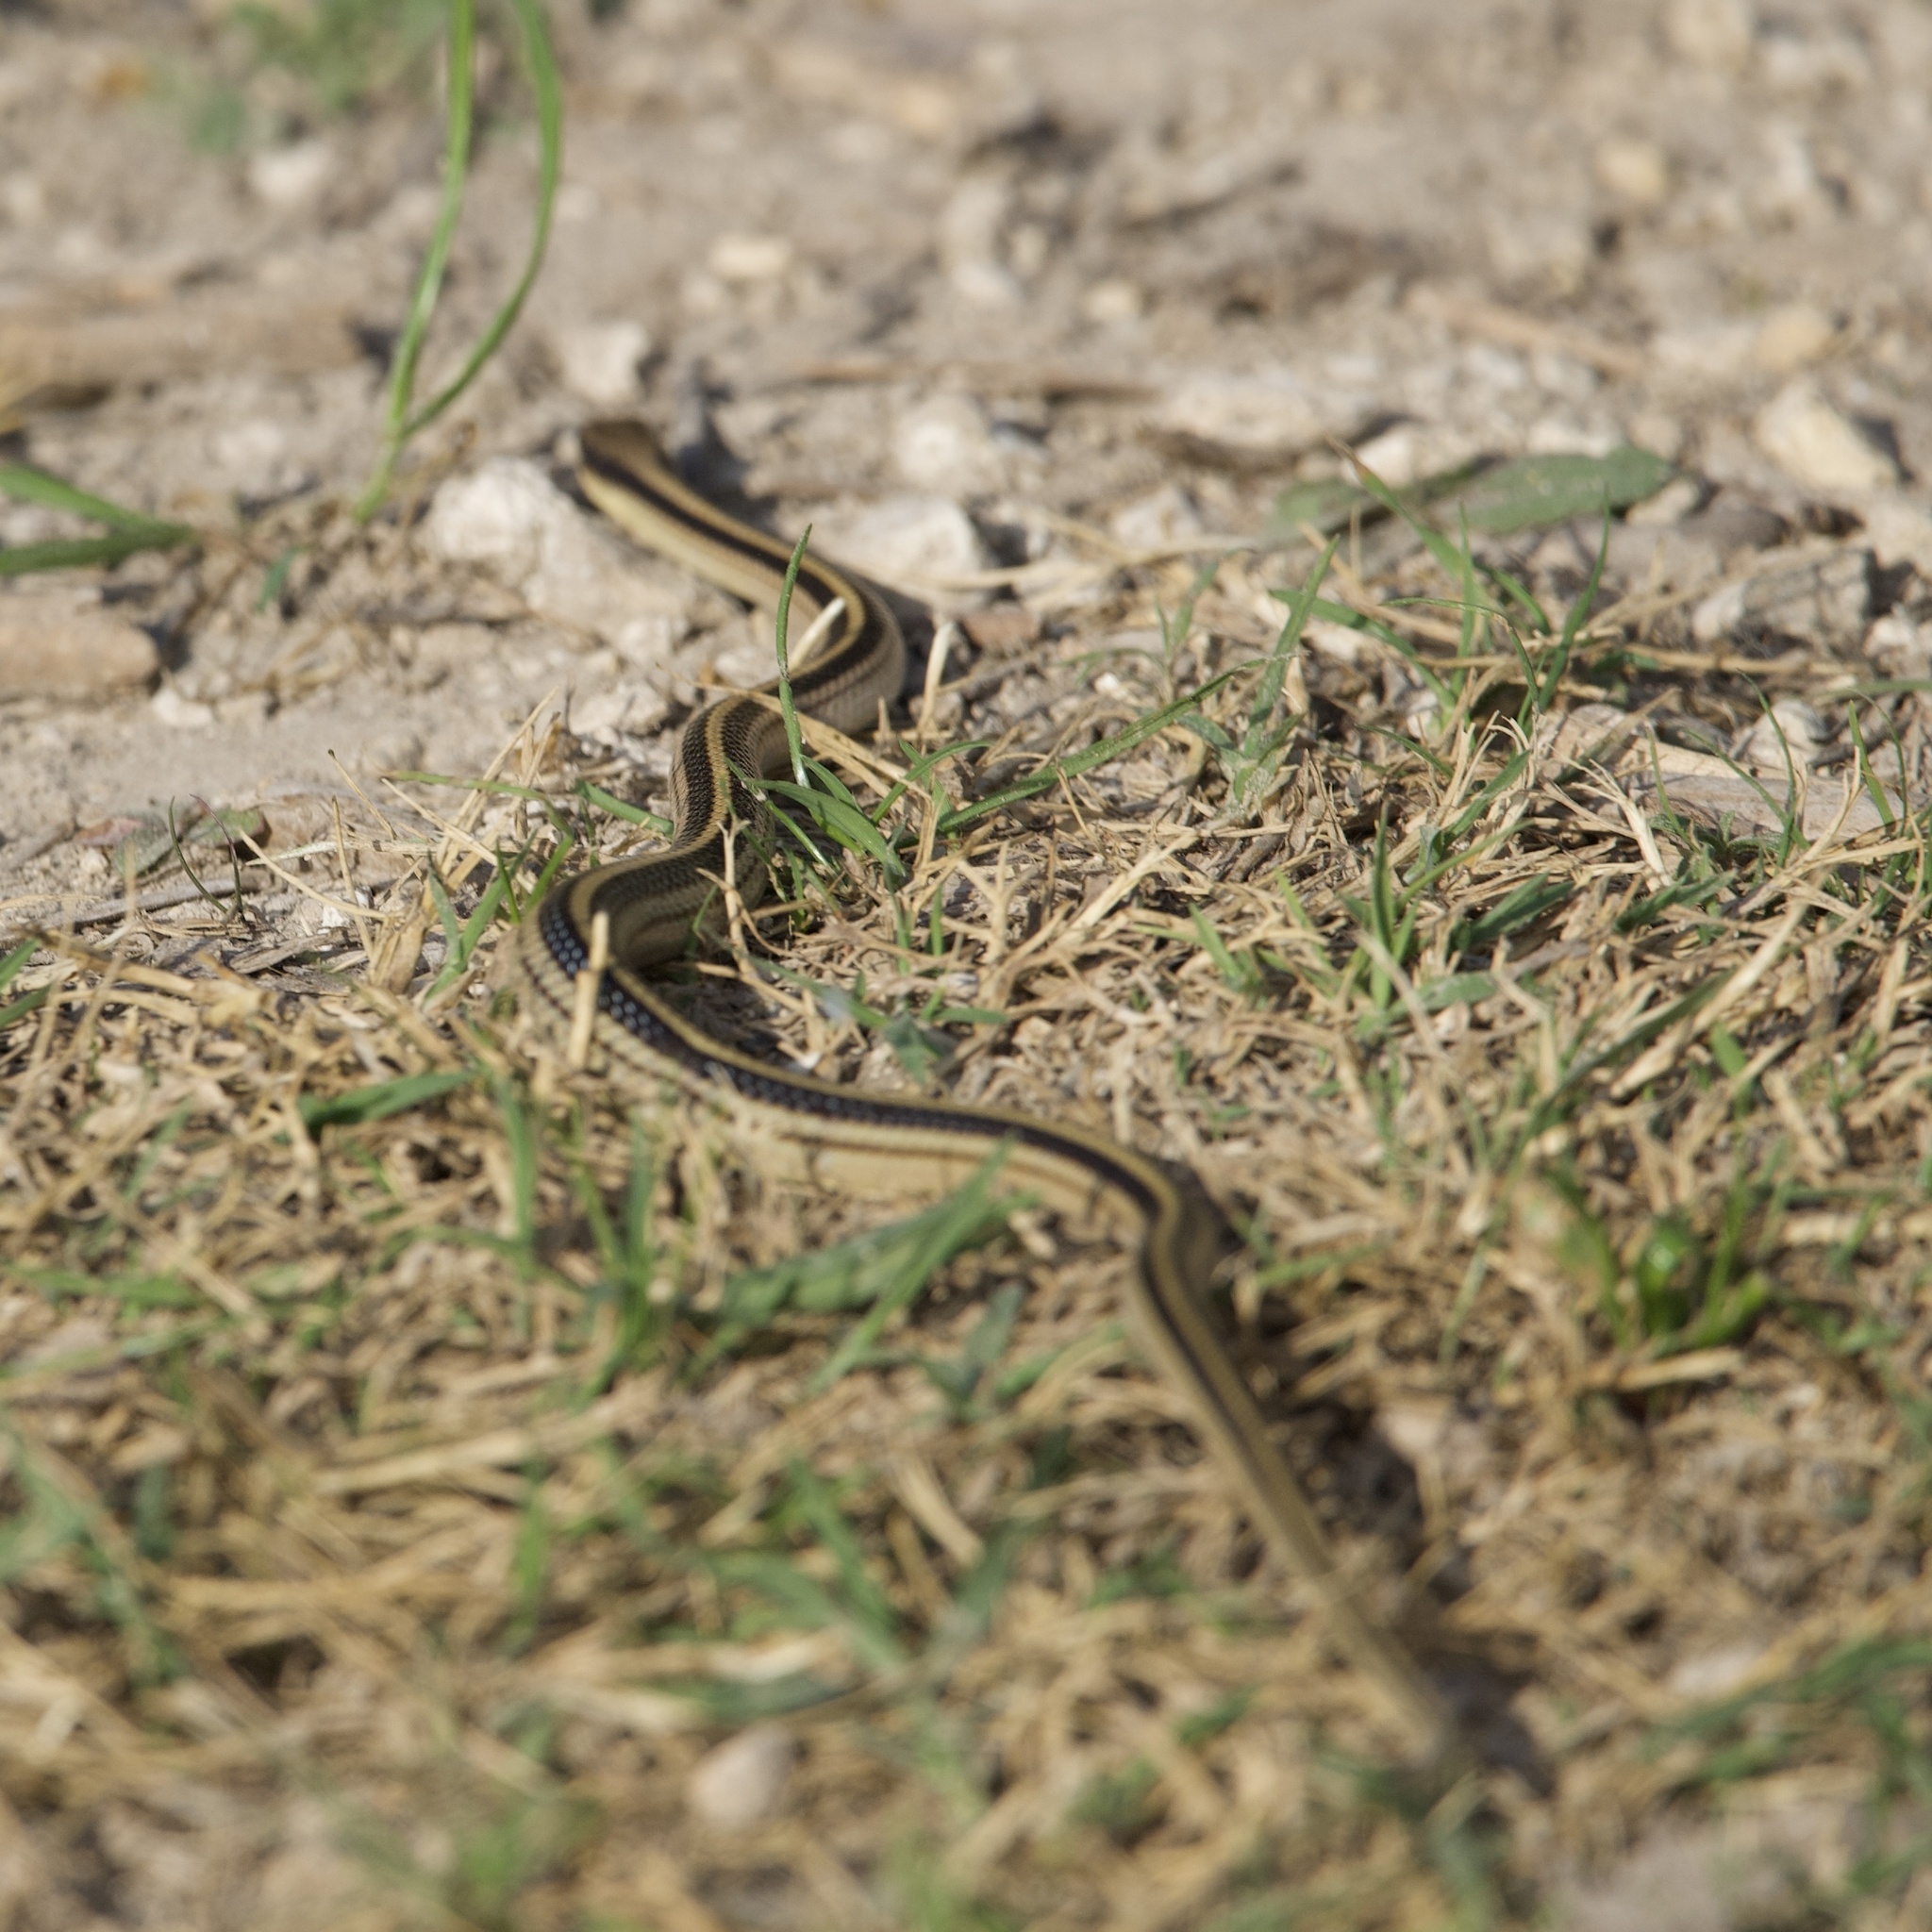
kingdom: Animalia
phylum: Chordata
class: Squamata
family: Colubridae
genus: Salvadora
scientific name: Salvadora lineata
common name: Texas patchnose snake
